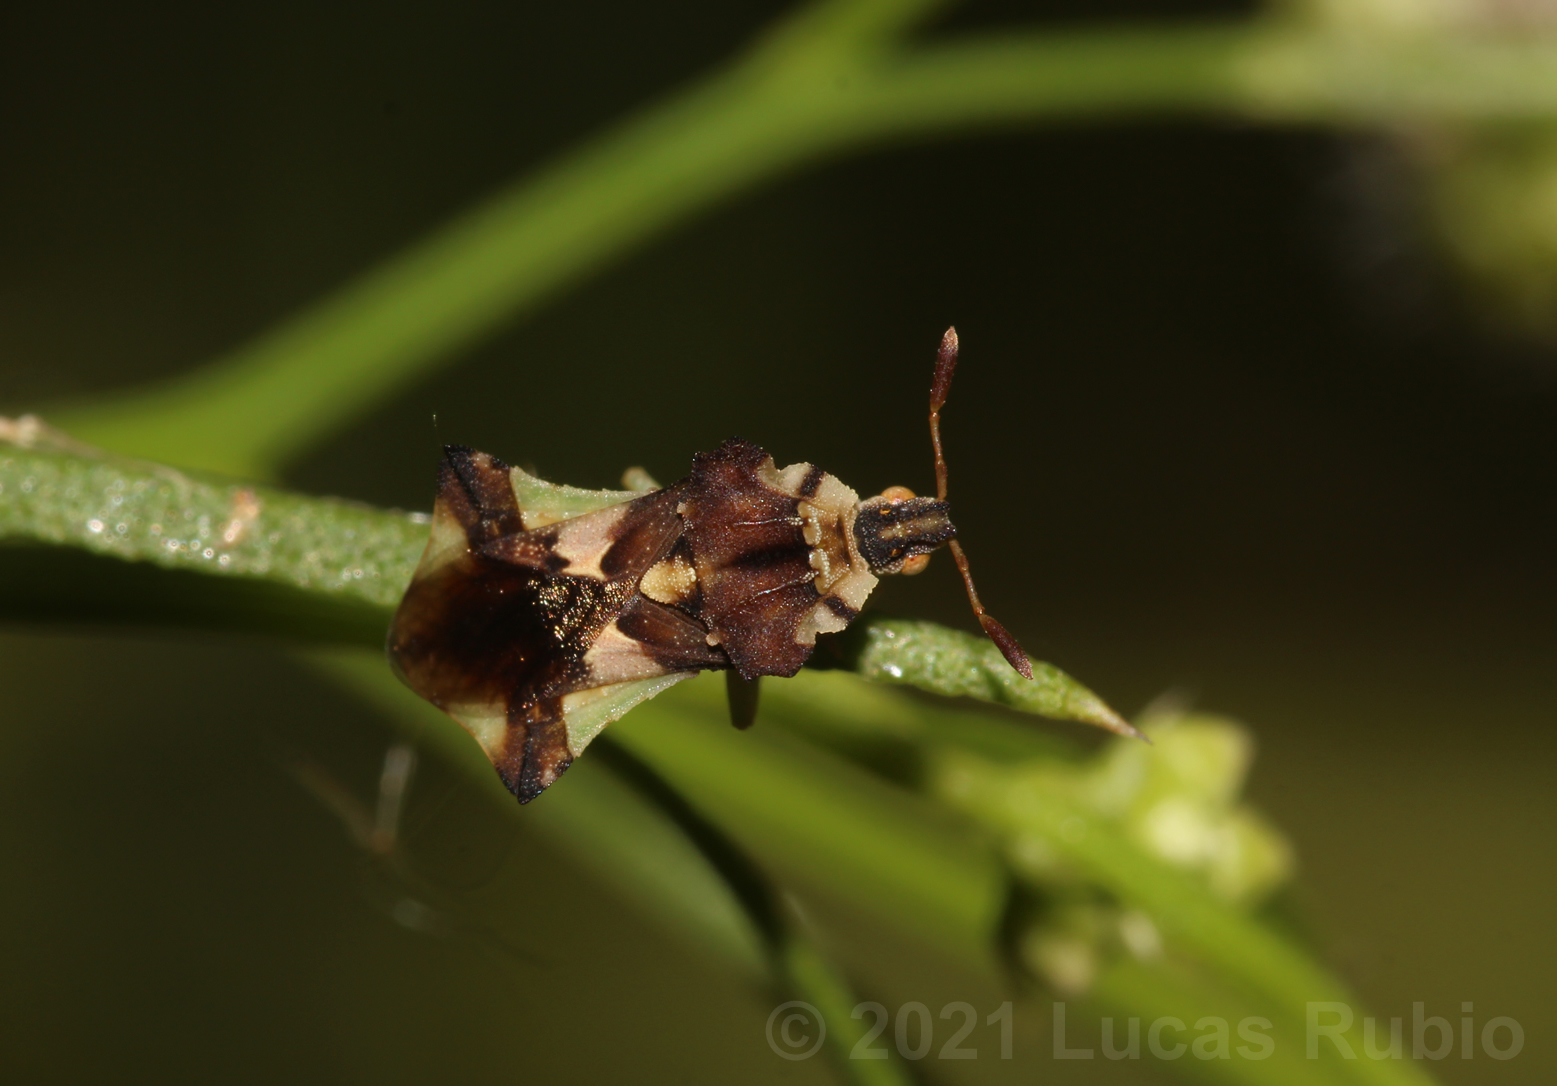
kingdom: Animalia
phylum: Arthropoda
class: Insecta
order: Hemiptera
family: Reduviidae
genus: Phymata
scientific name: Phymata communis
